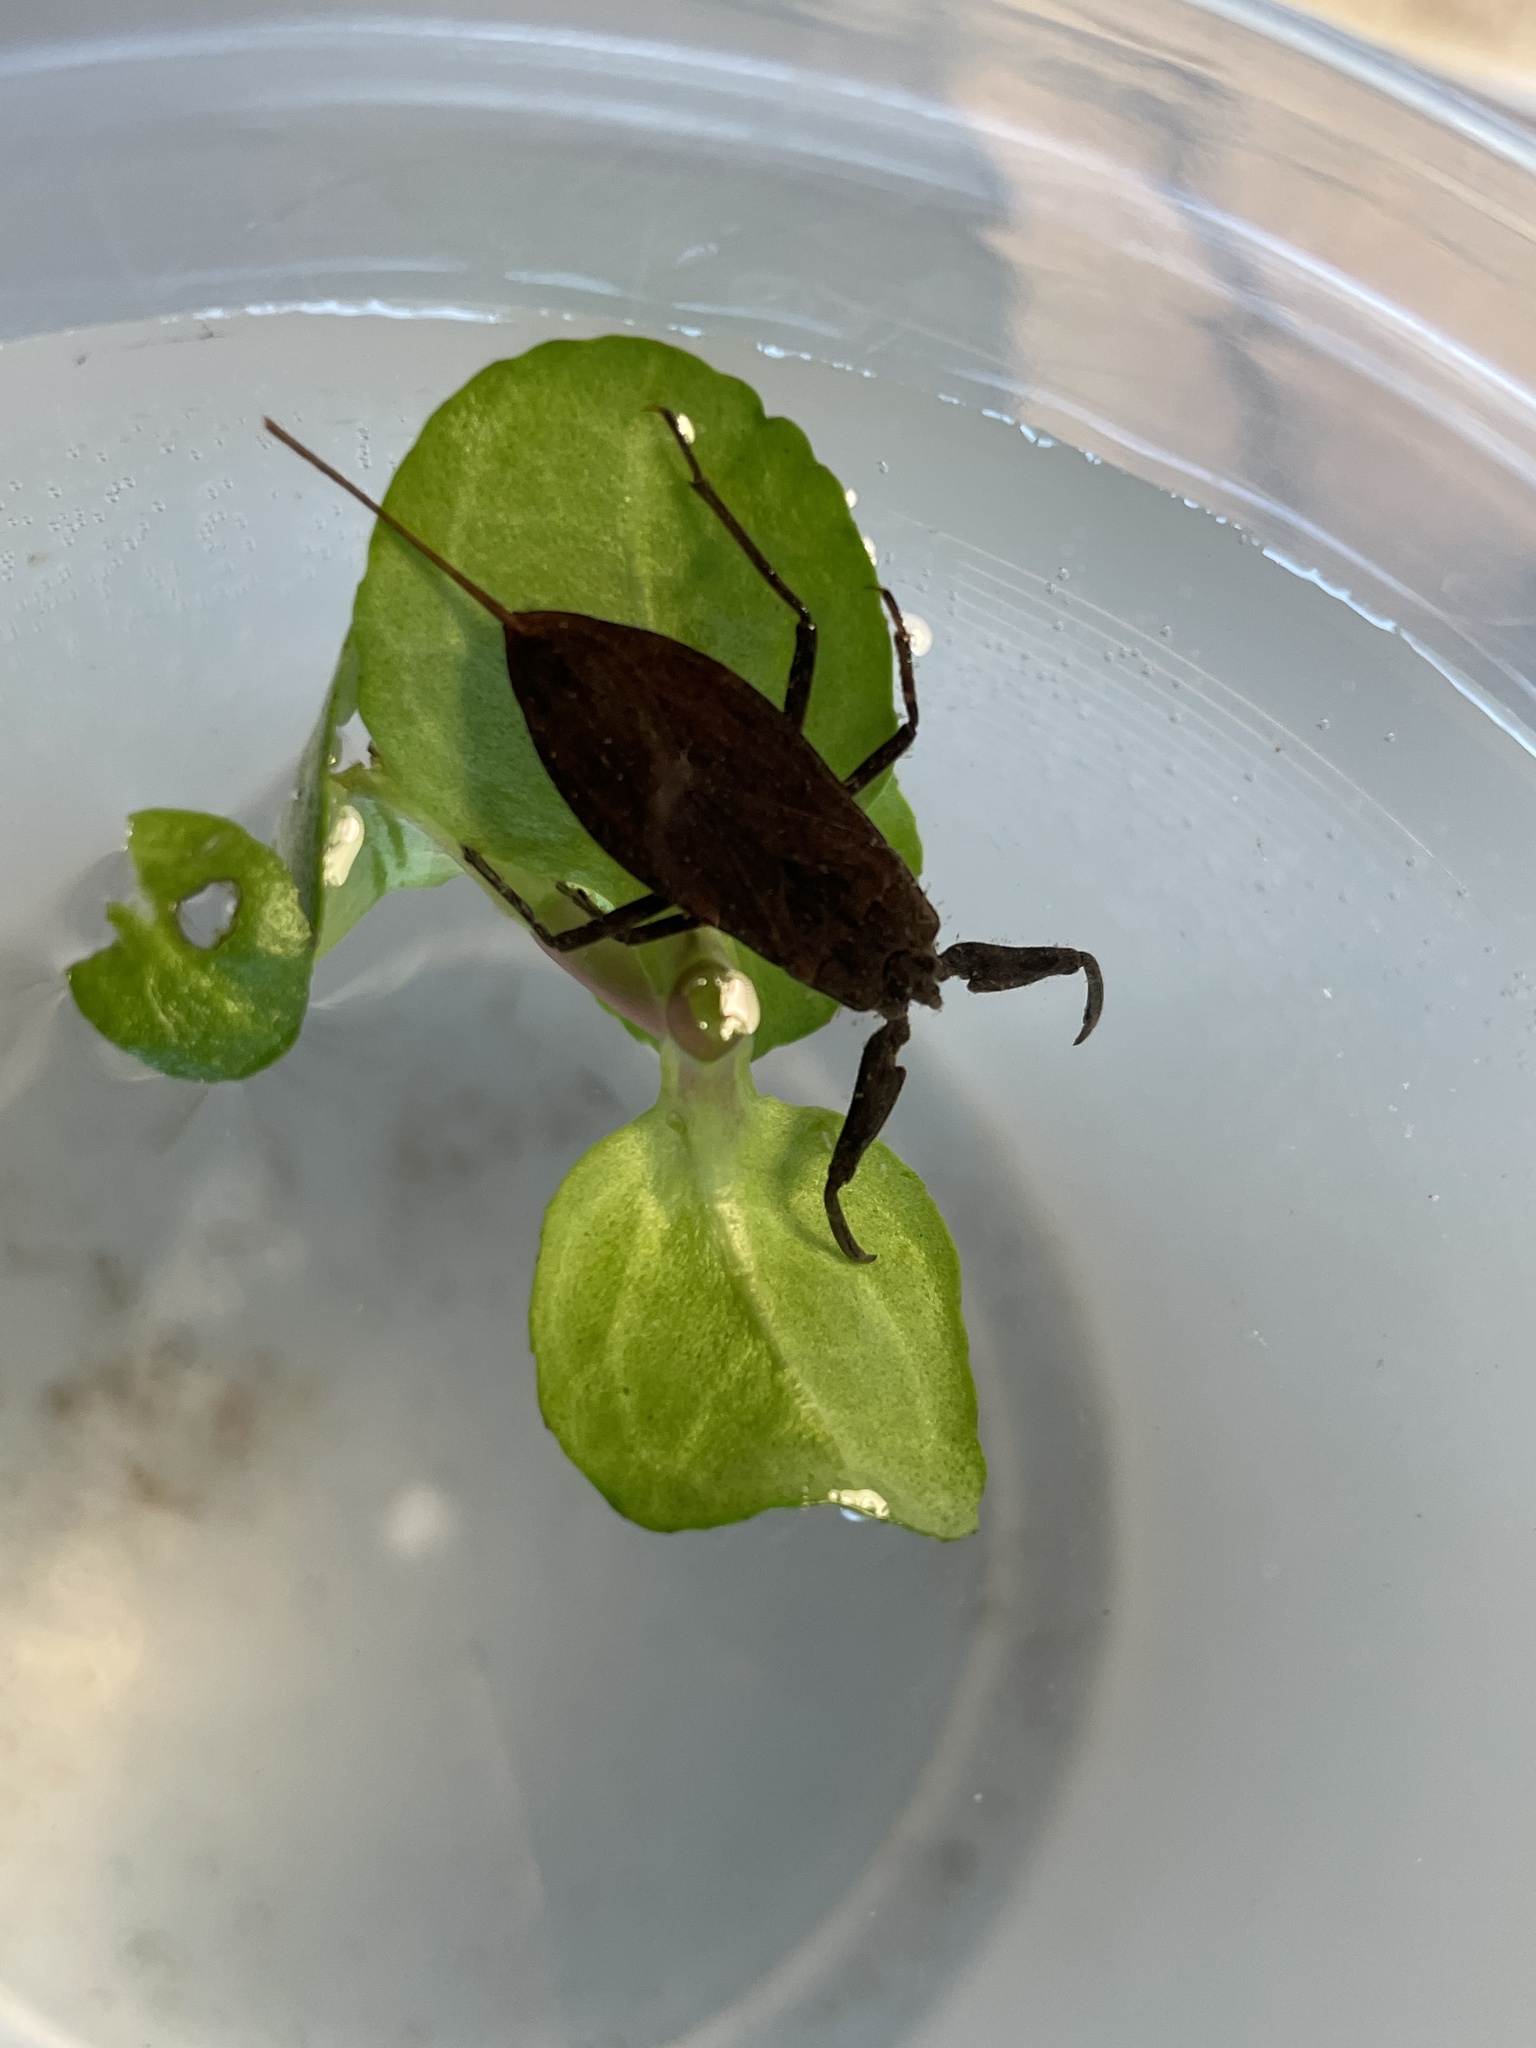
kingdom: Animalia
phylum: Arthropoda
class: Insecta
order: Hemiptera
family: Nepidae
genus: Nepa
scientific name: Nepa cinerea
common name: Water scorpion
